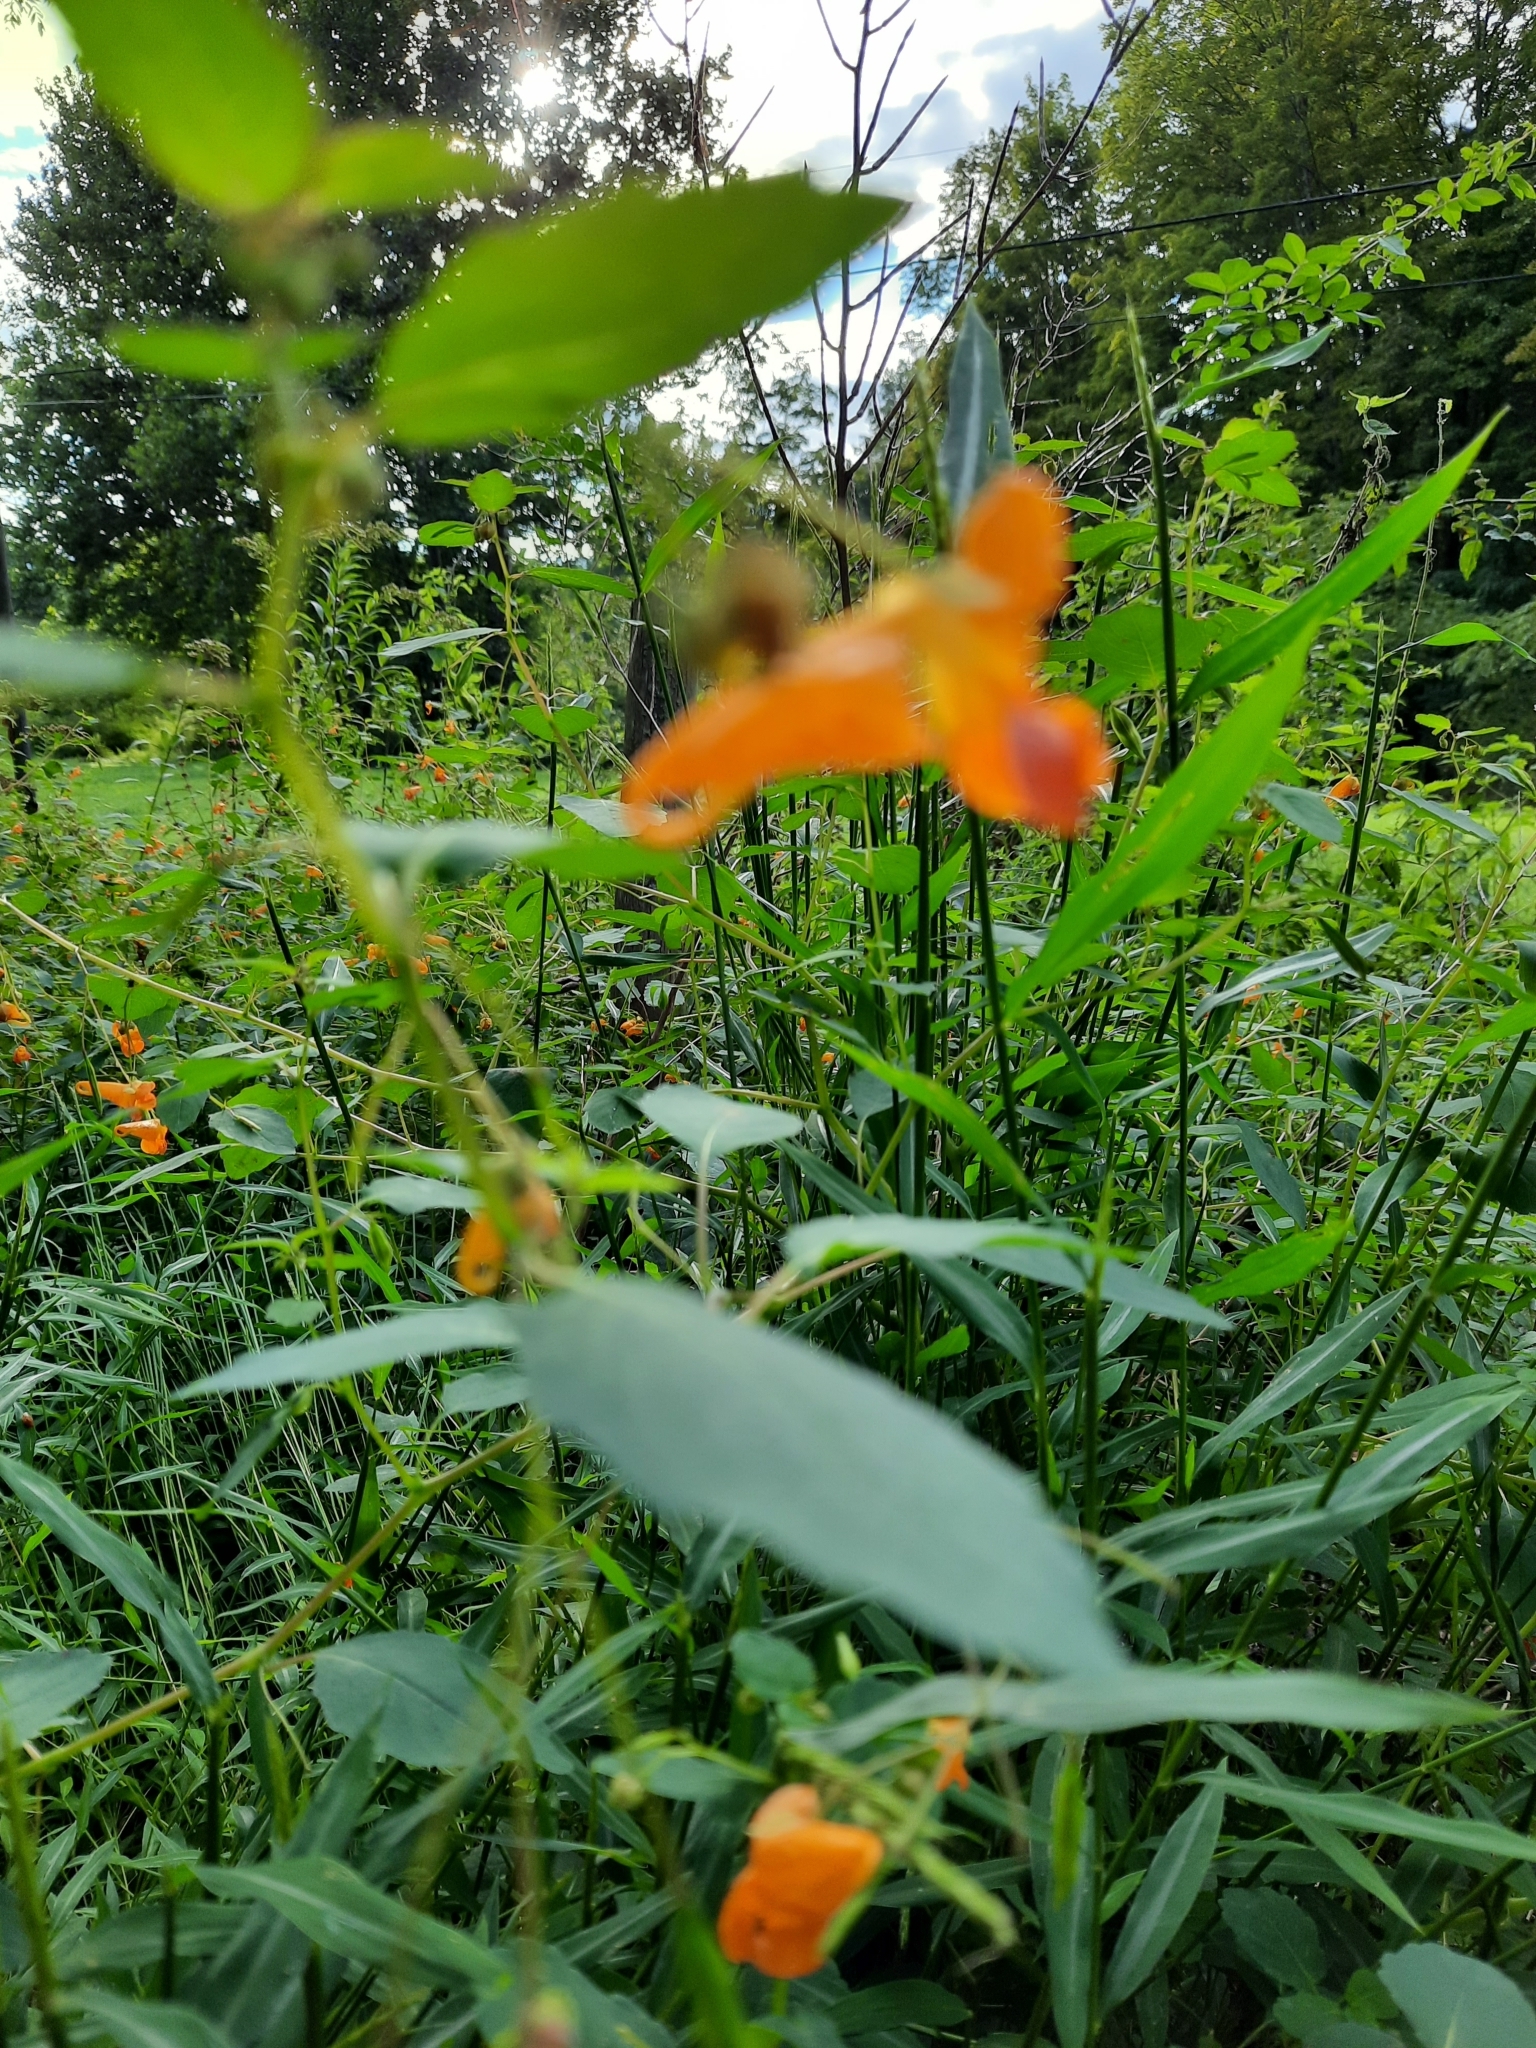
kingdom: Plantae
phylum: Tracheophyta
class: Magnoliopsida
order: Ericales
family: Balsaminaceae
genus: Impatiens
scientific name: Impatiens capensis
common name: Orange balsam
